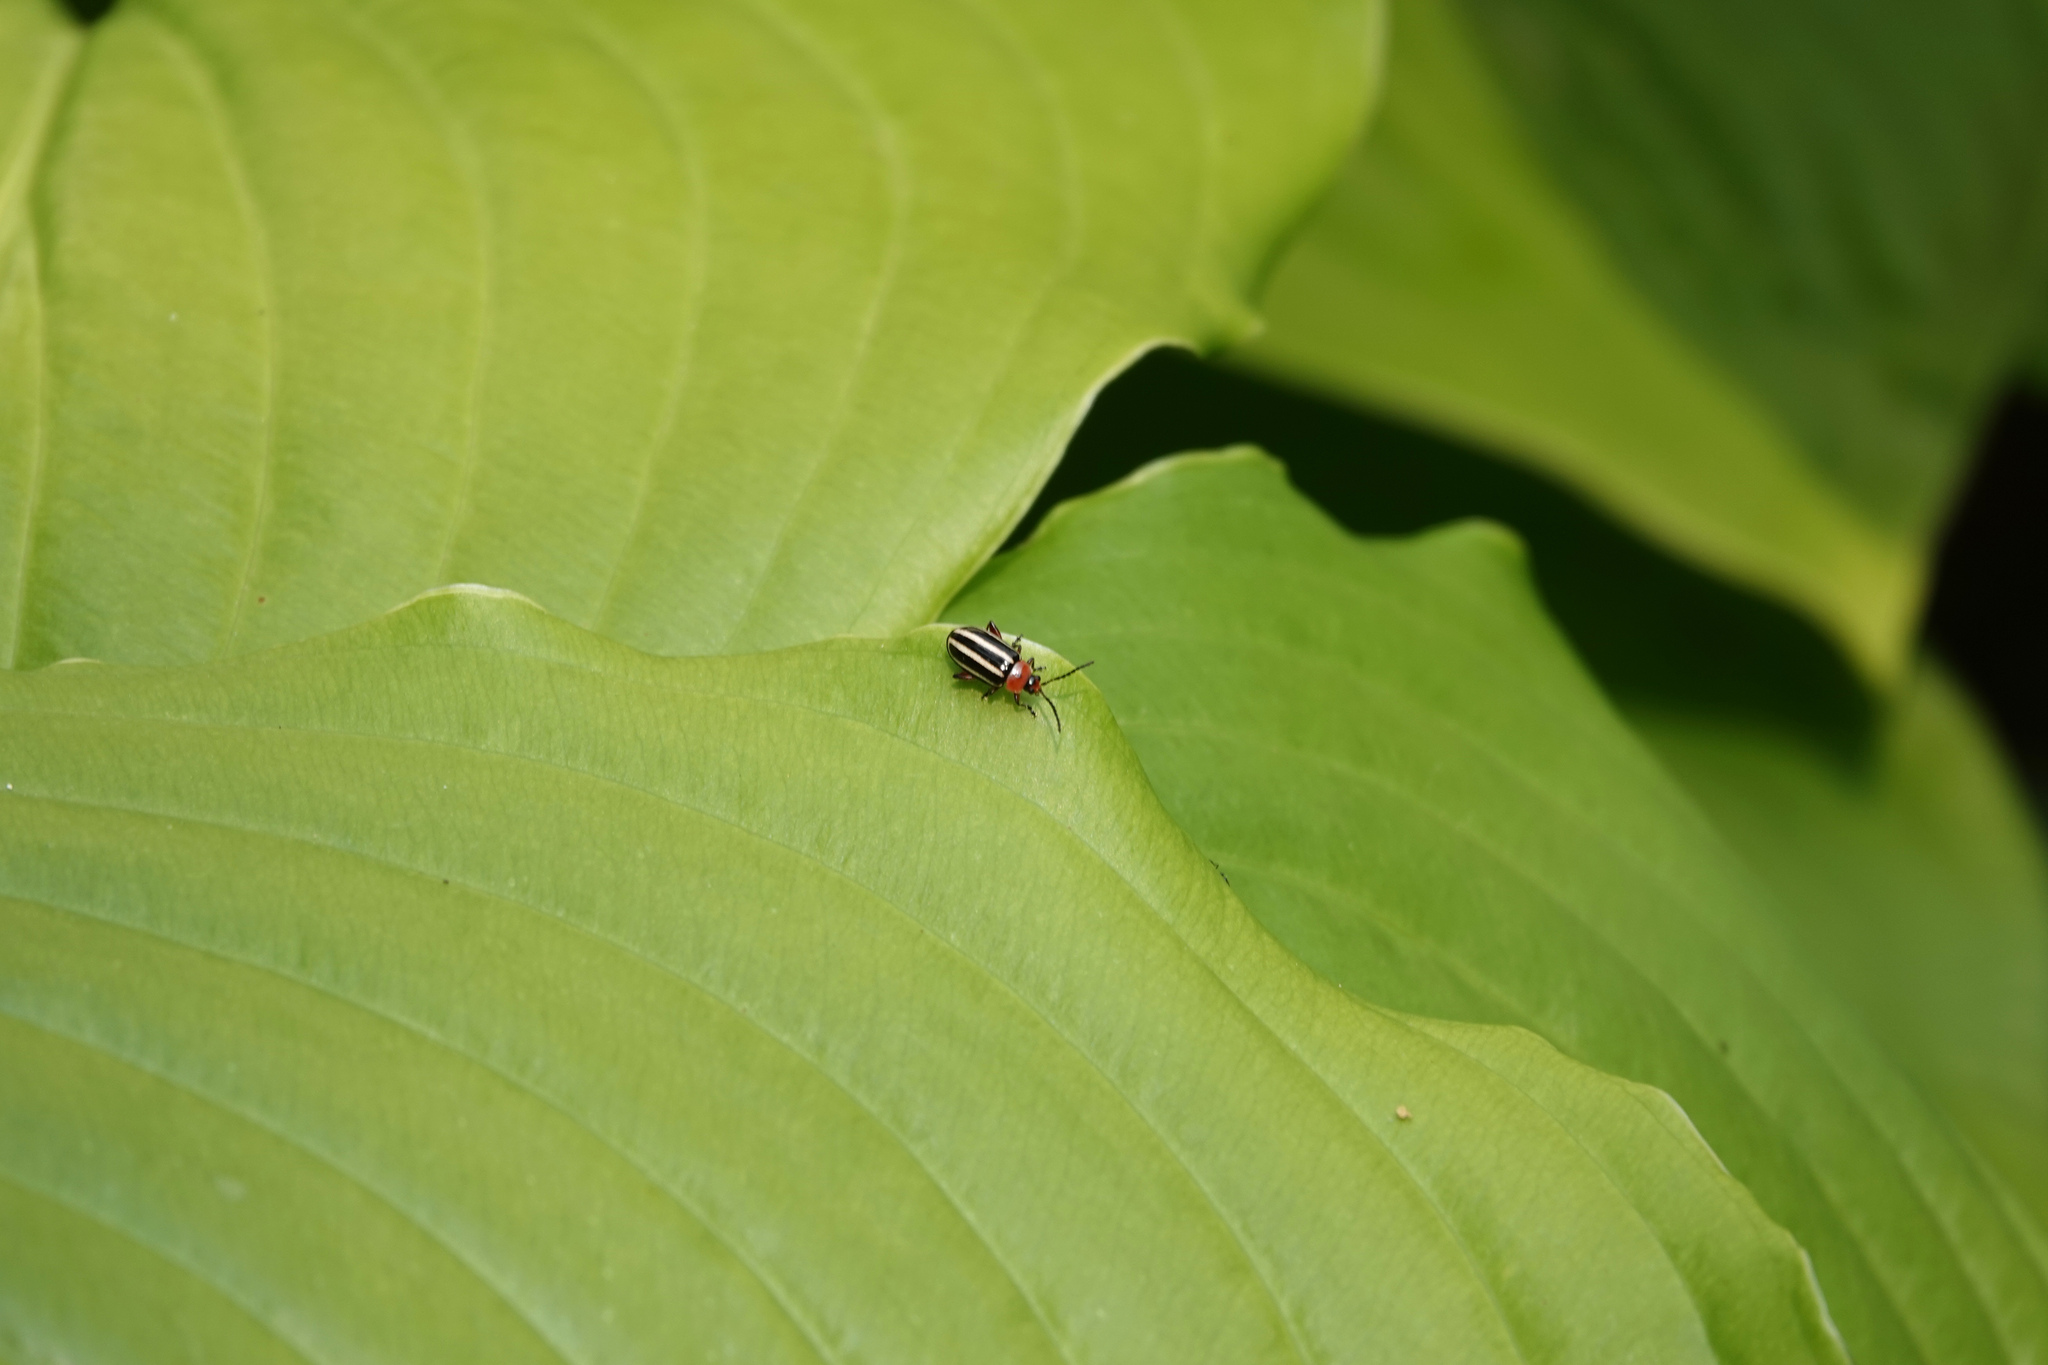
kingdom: Animalia
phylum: Arthropoda
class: Insecta
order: Coleoptera
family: Chrysomelidae
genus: Disonycha
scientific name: Disonycha glabrata
